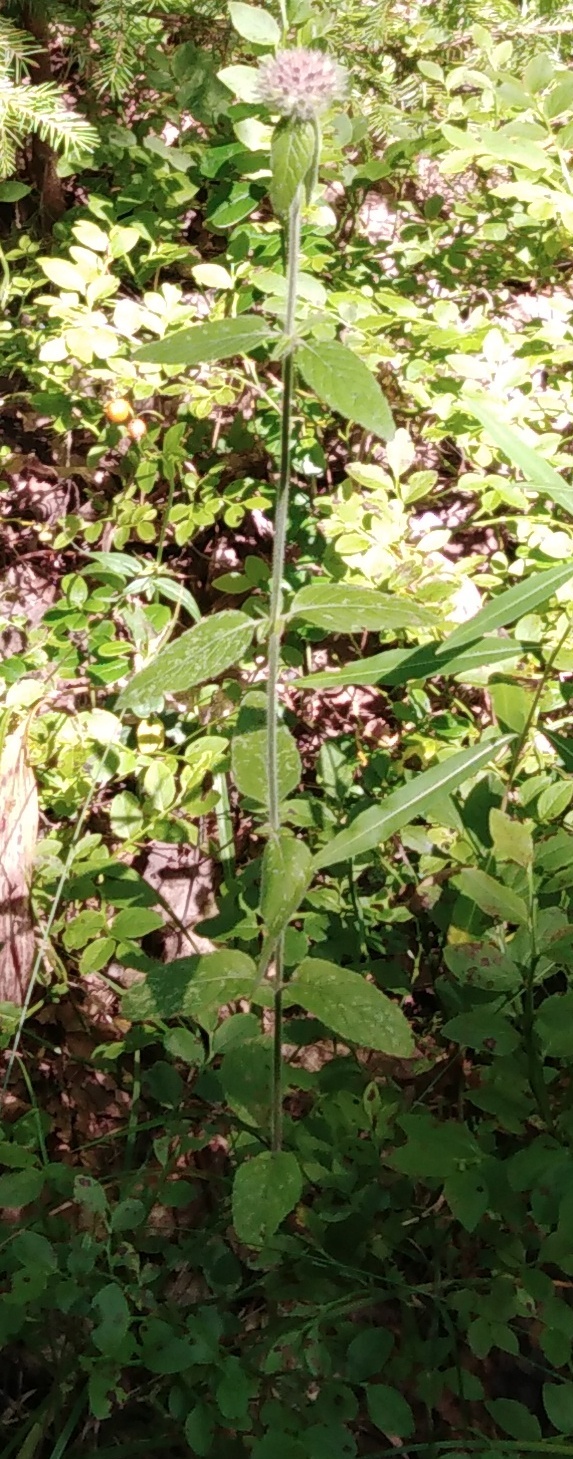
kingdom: Plantae
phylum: Tracheophyta
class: Magnoliopsida
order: Lamiales
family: Lamiaceae
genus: Clinopodium
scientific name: Clinopodium vulgare
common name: Wild basil
